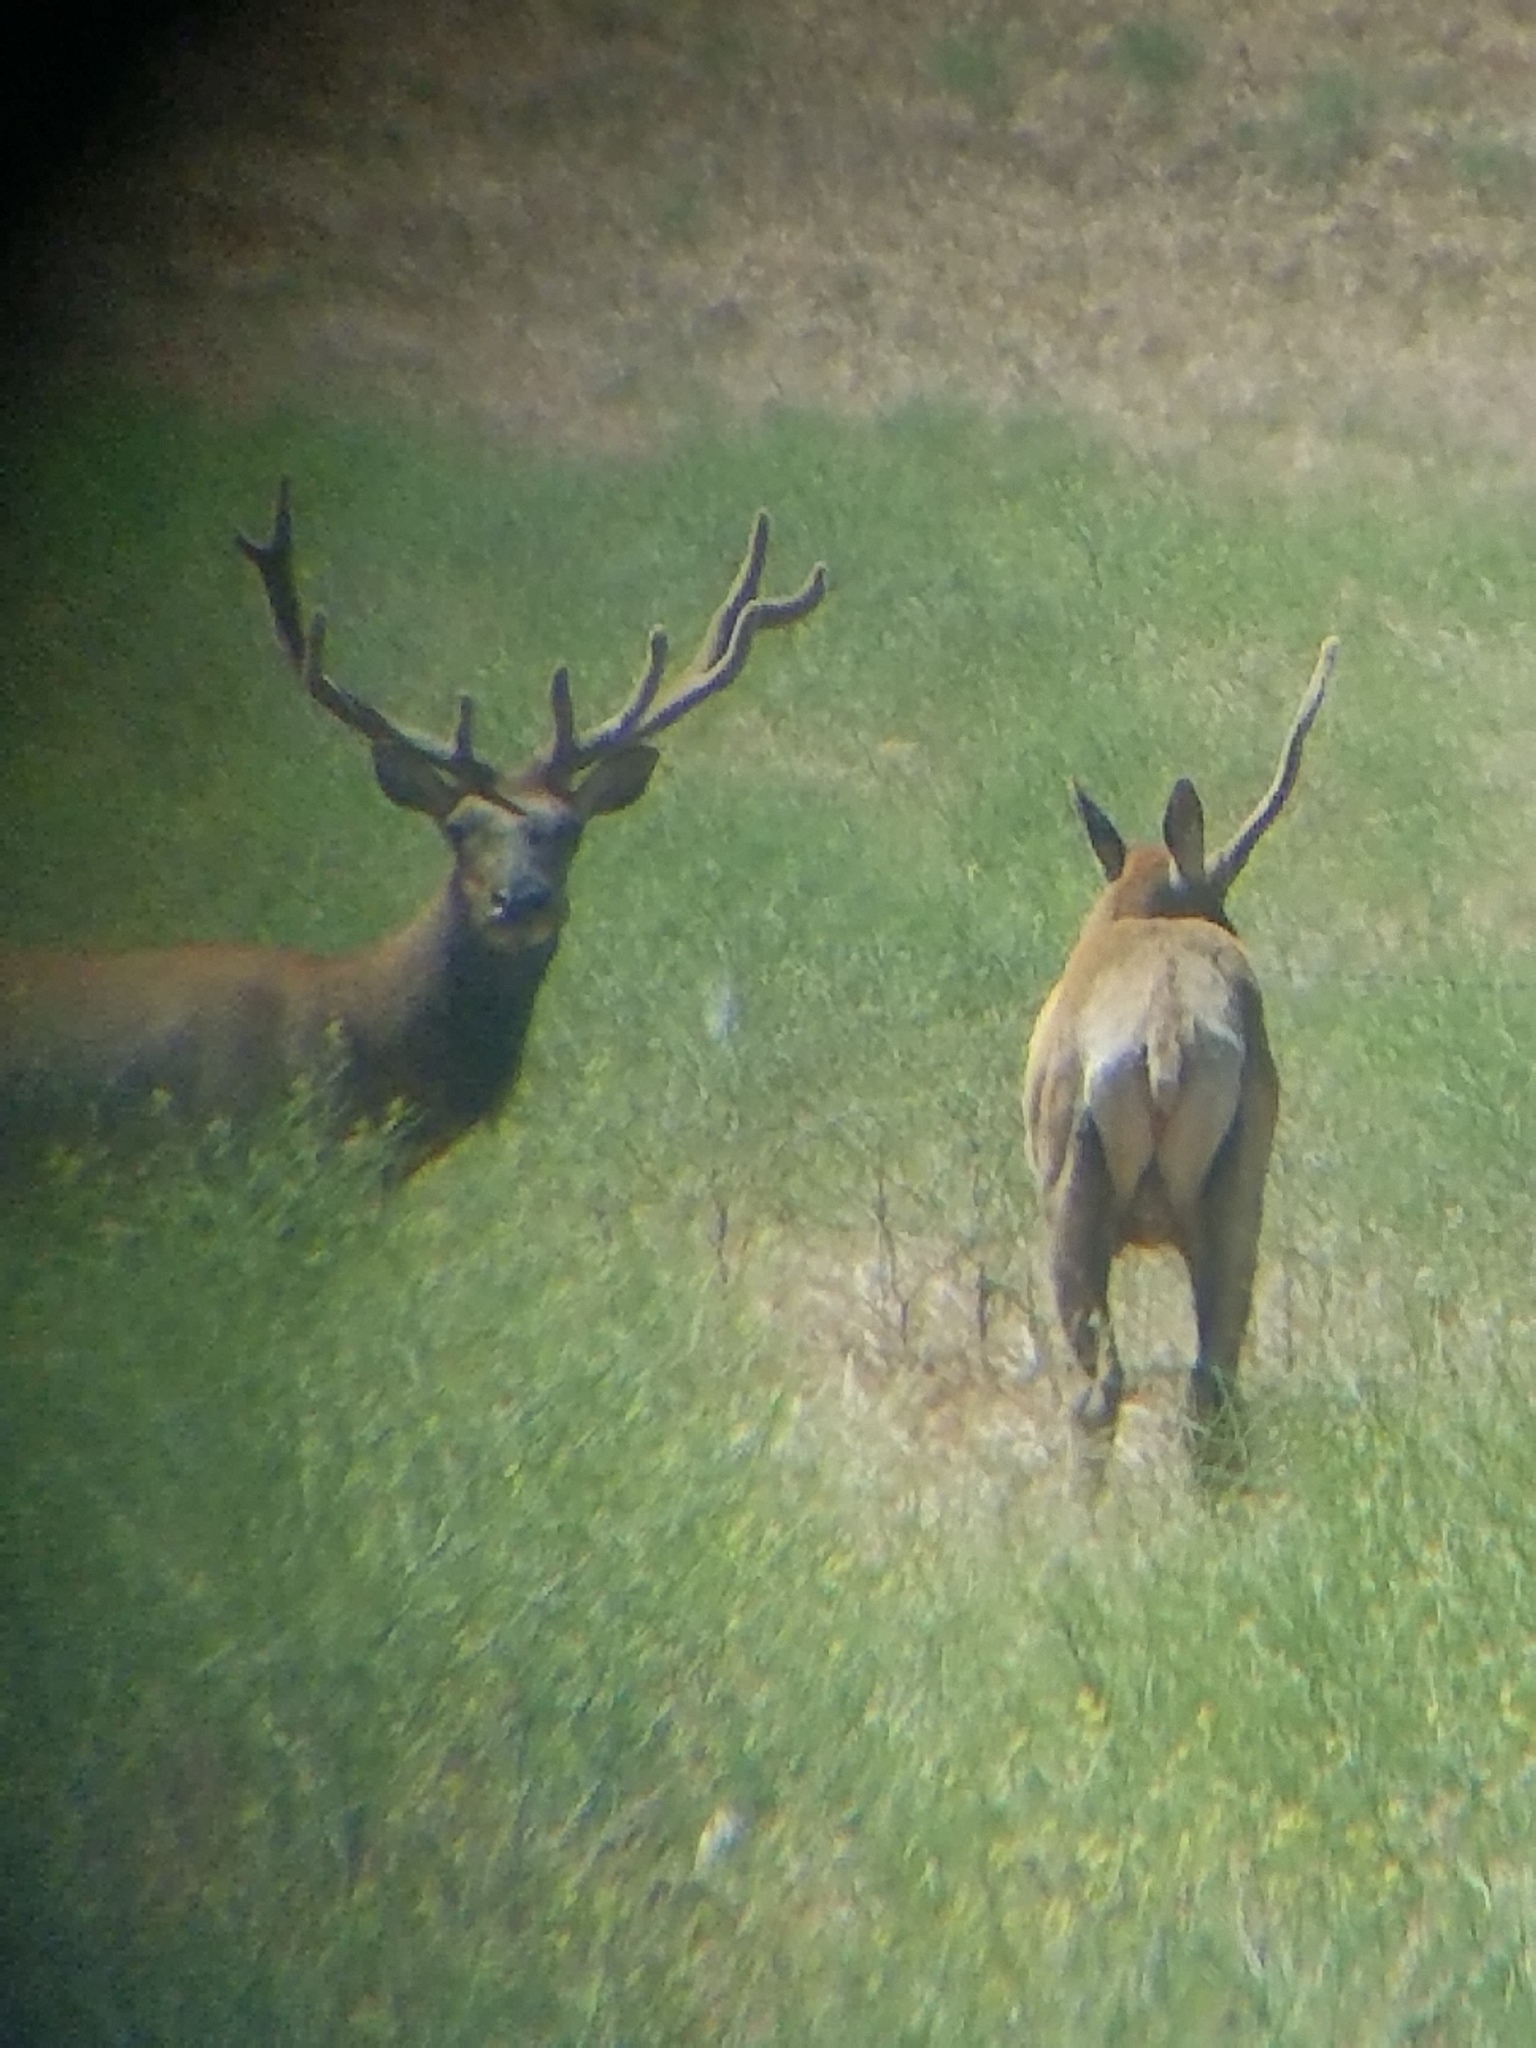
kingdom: Animalia
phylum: Chordata
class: Mammalia
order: Artiodactyla
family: Cervidae
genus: Cervus
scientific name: Cervus elaphus
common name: Red deer
